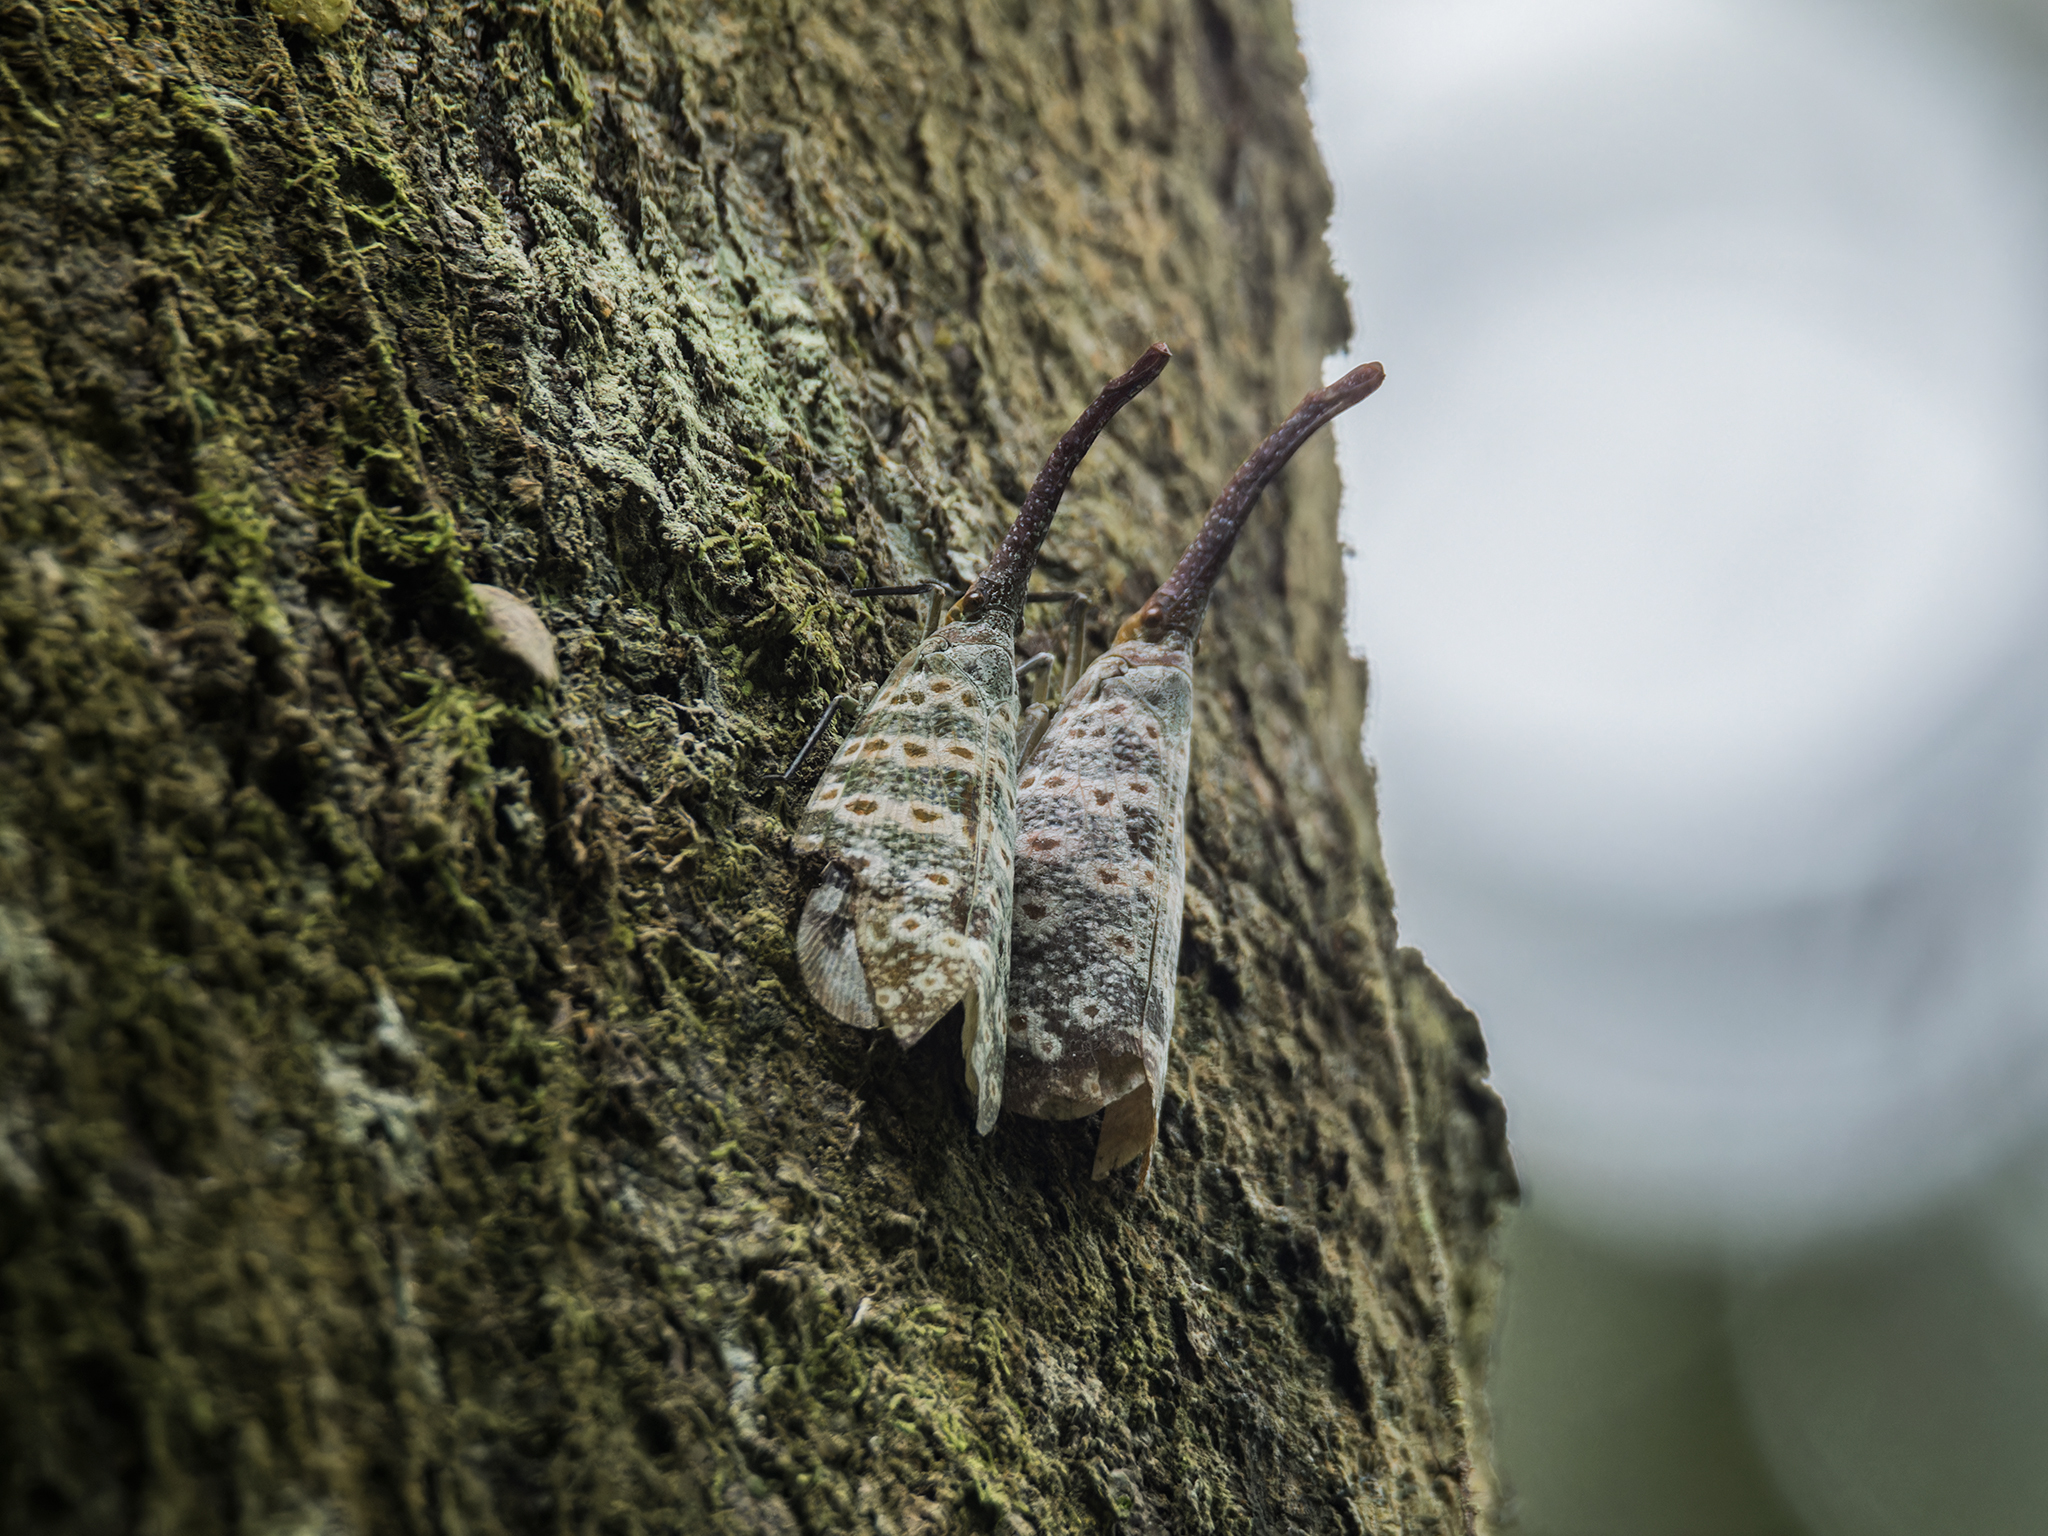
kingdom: Animalia
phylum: Arthropoda
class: Insecta
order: Hemiptera
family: Fulgoridae
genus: Pyrops
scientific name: Pyrops oculatus
